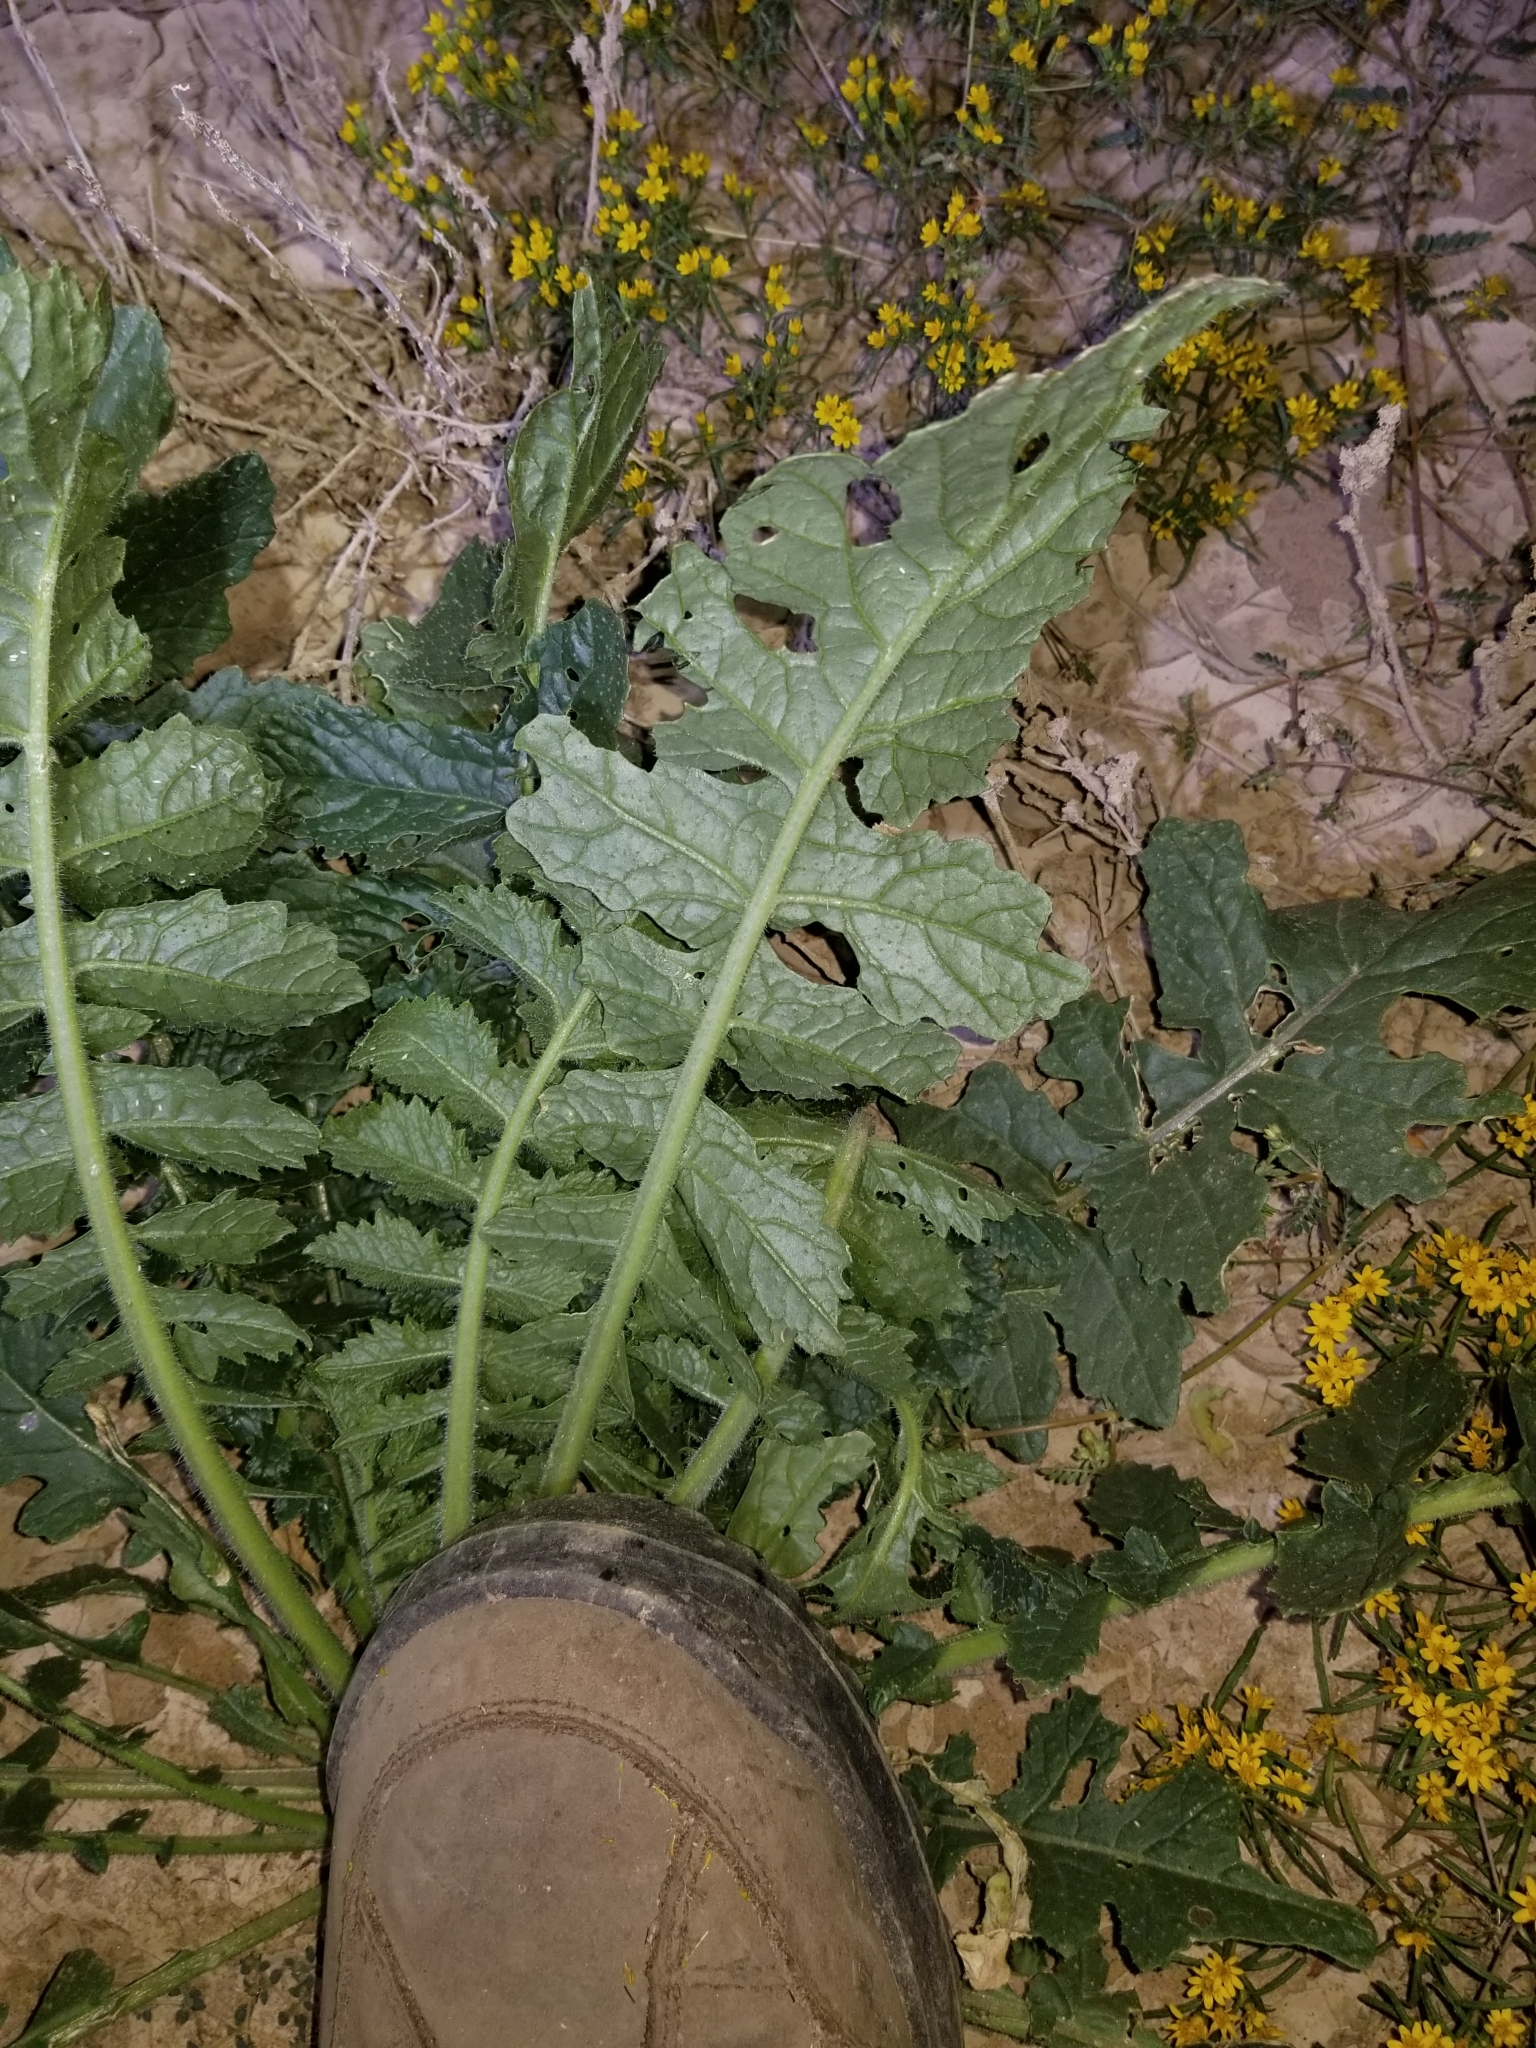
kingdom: Plantae
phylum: Tracheophyta
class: Magnoliopsida
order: Brassicales
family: Brassicaceae
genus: Brassica
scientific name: Brassica tournefortii
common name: Pale cabbage
